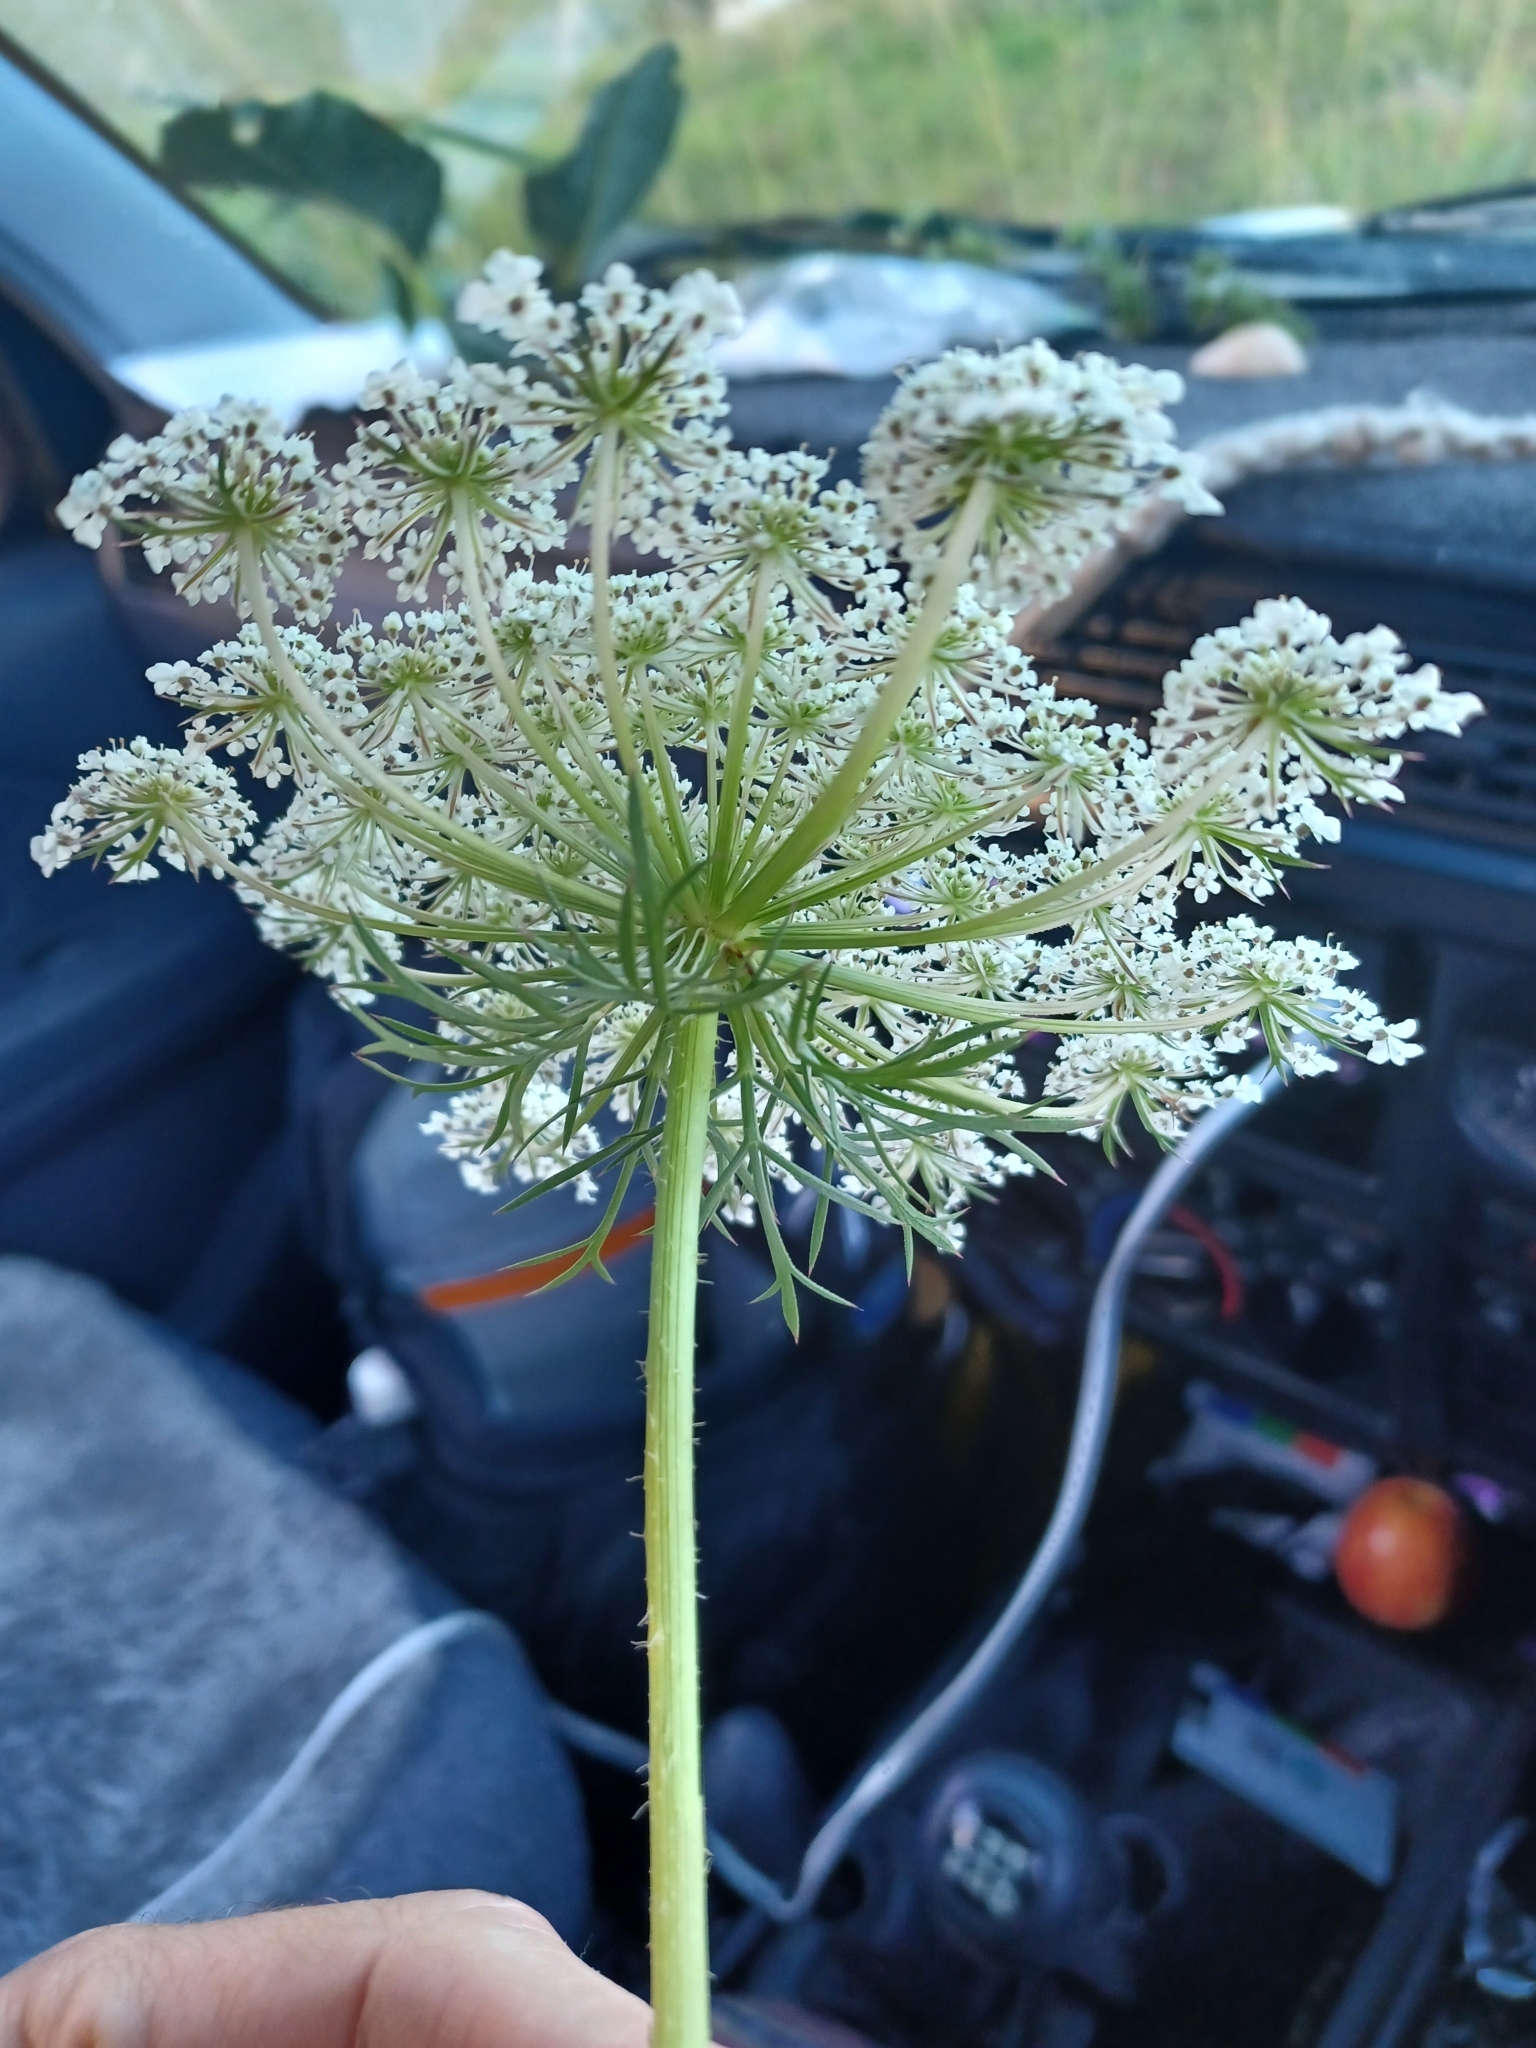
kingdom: Plantae
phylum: Tracheophyta
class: Magnoliopsida
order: Apiales
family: Apiaceae
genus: Daucus
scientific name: Daucus carota
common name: Wild carrot
